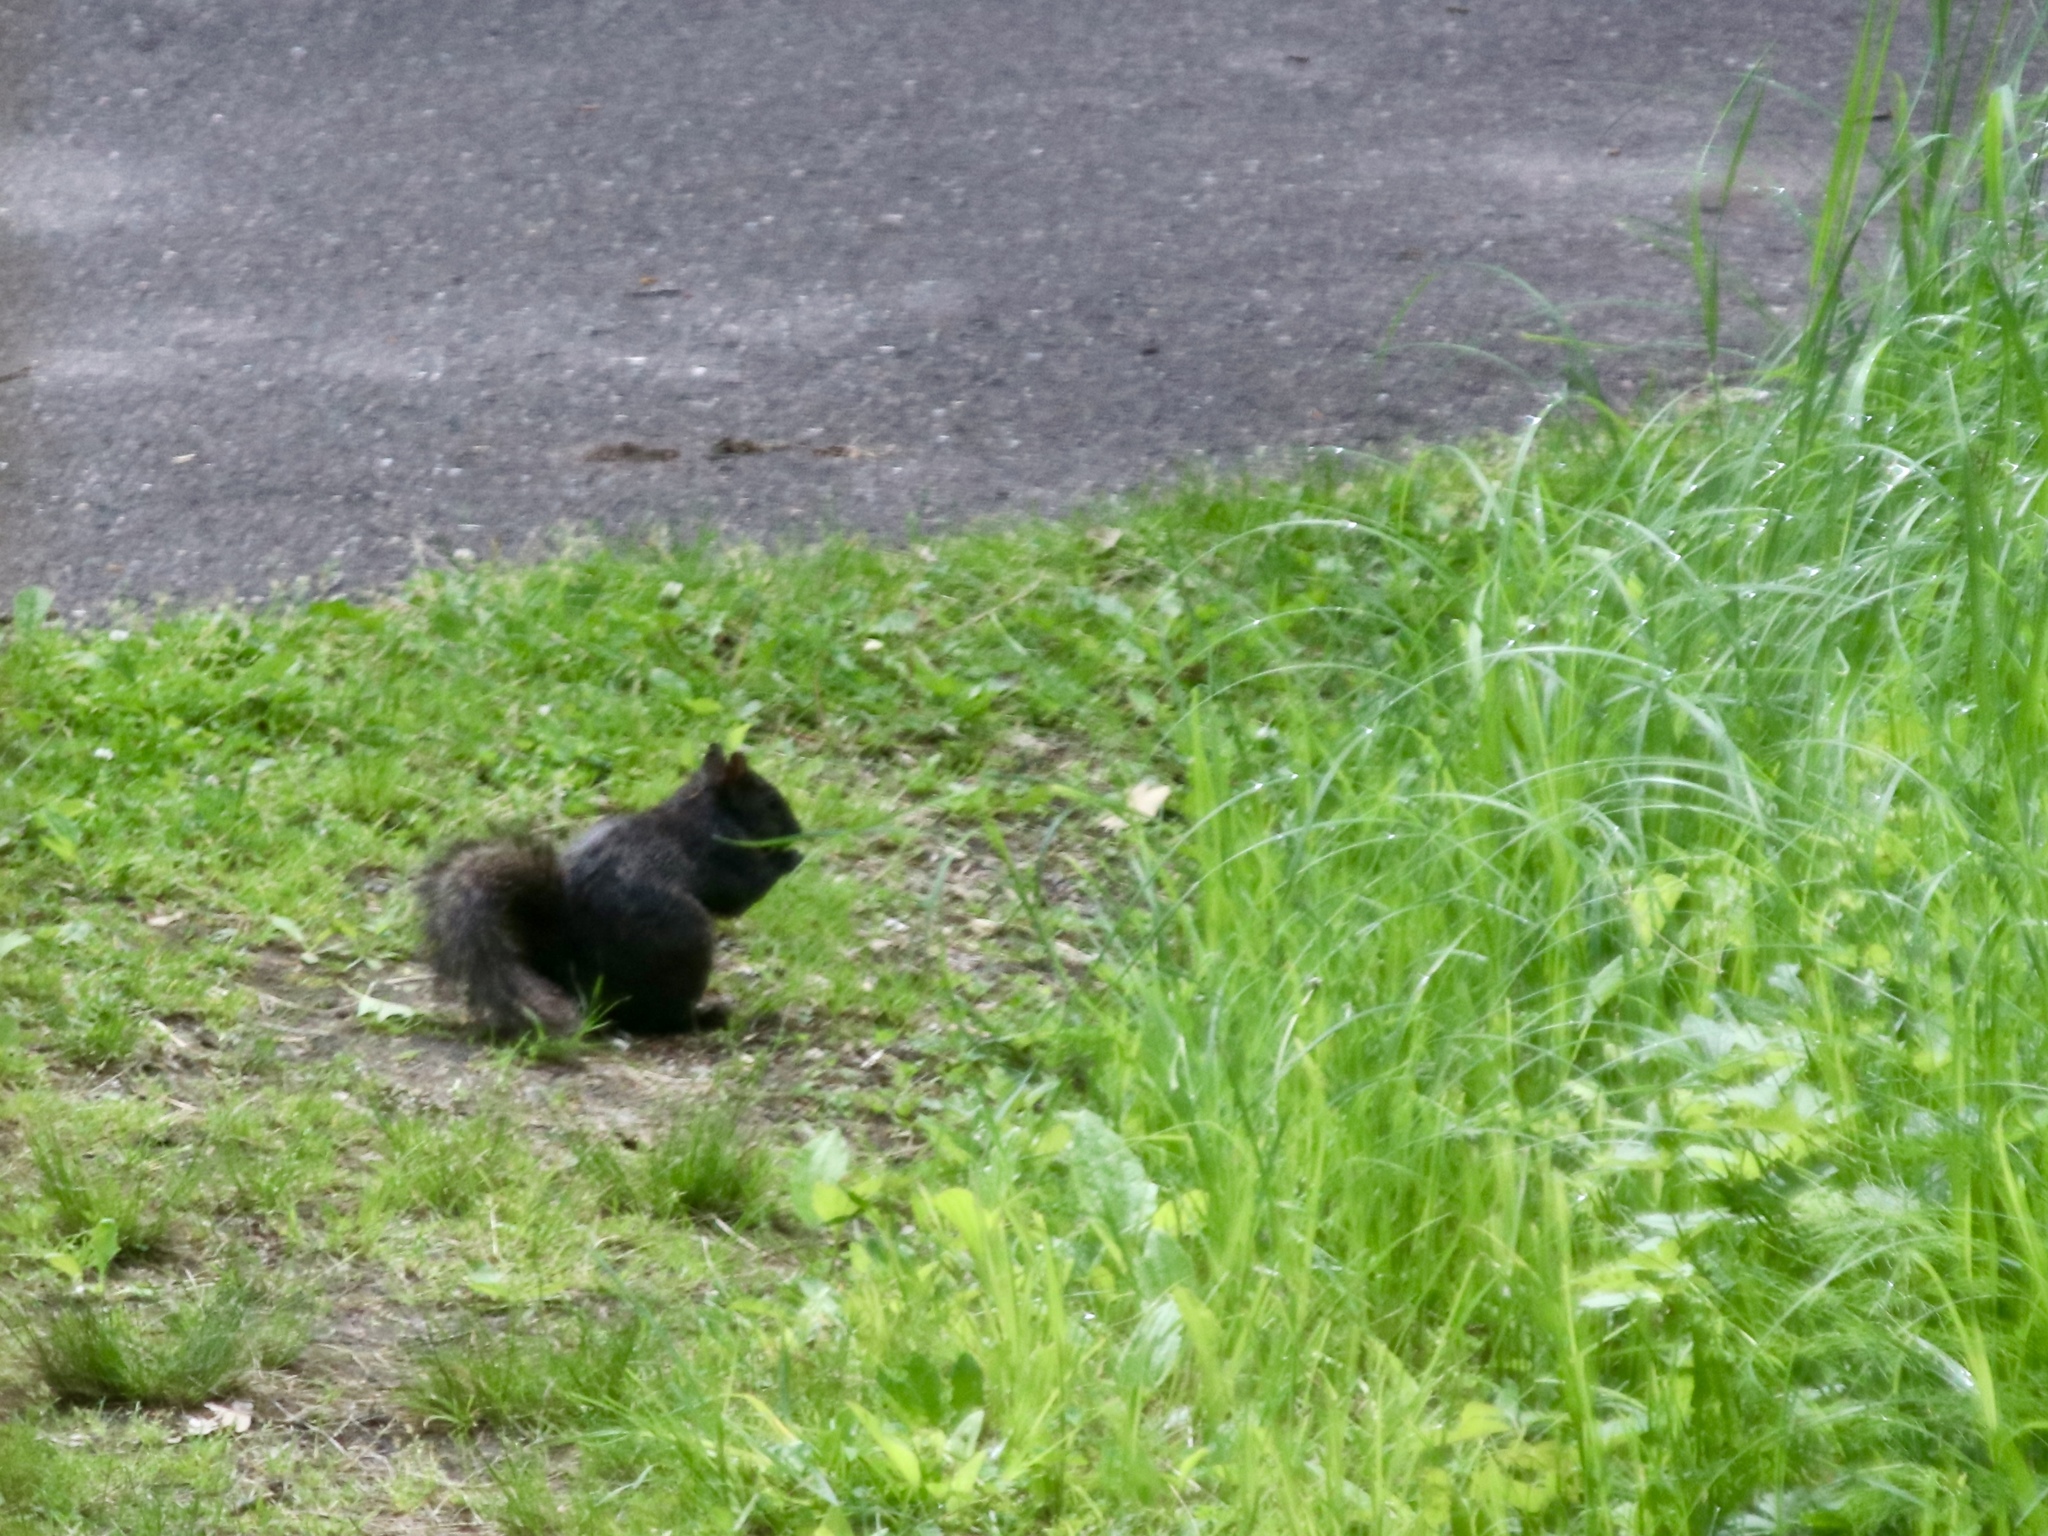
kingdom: Animalia
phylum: Chordata
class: Mammalia
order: Rodentia
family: Sciuridae
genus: Sciurus
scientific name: Sciurus carolinensis
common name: Eastern gray squirrel
